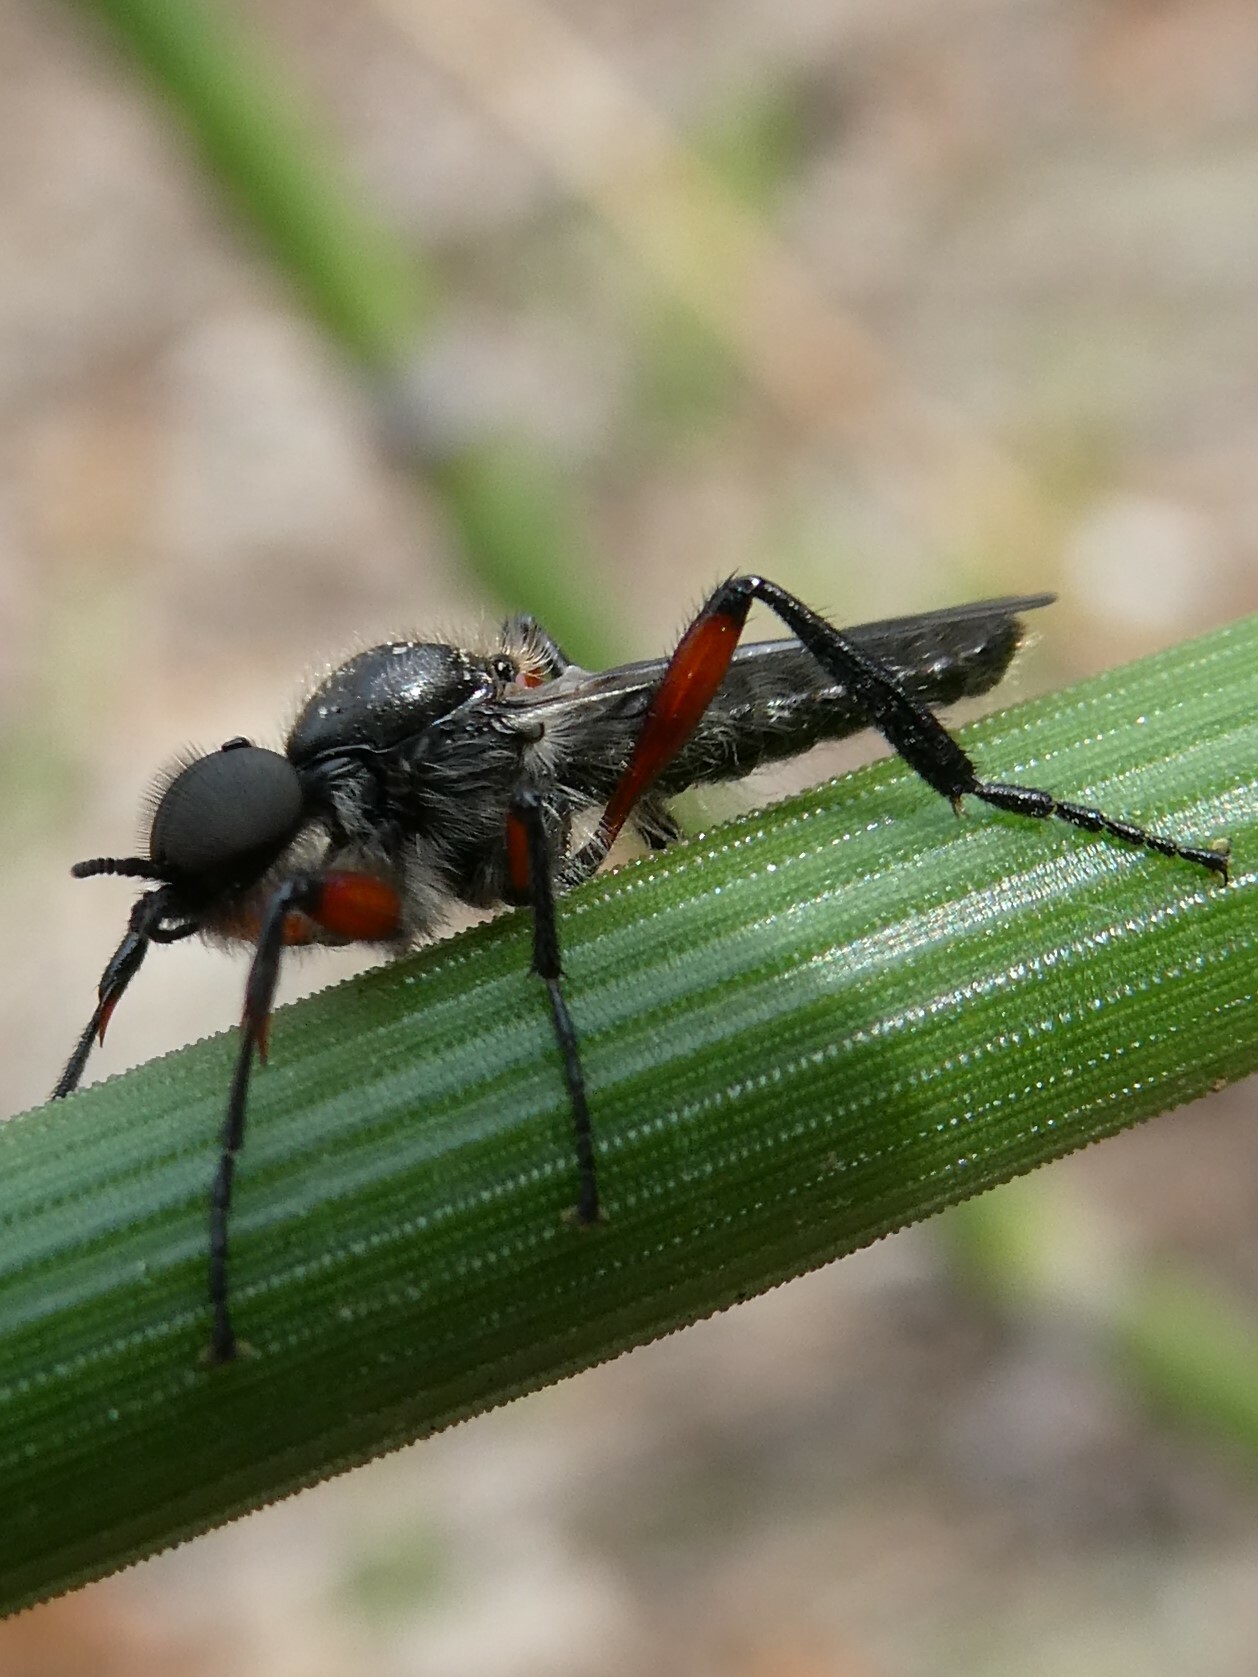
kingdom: Animalia
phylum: Arthropoda
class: Insecta
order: Diptera
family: Bibionidae
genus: Bibio
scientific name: Bibio femoratus
